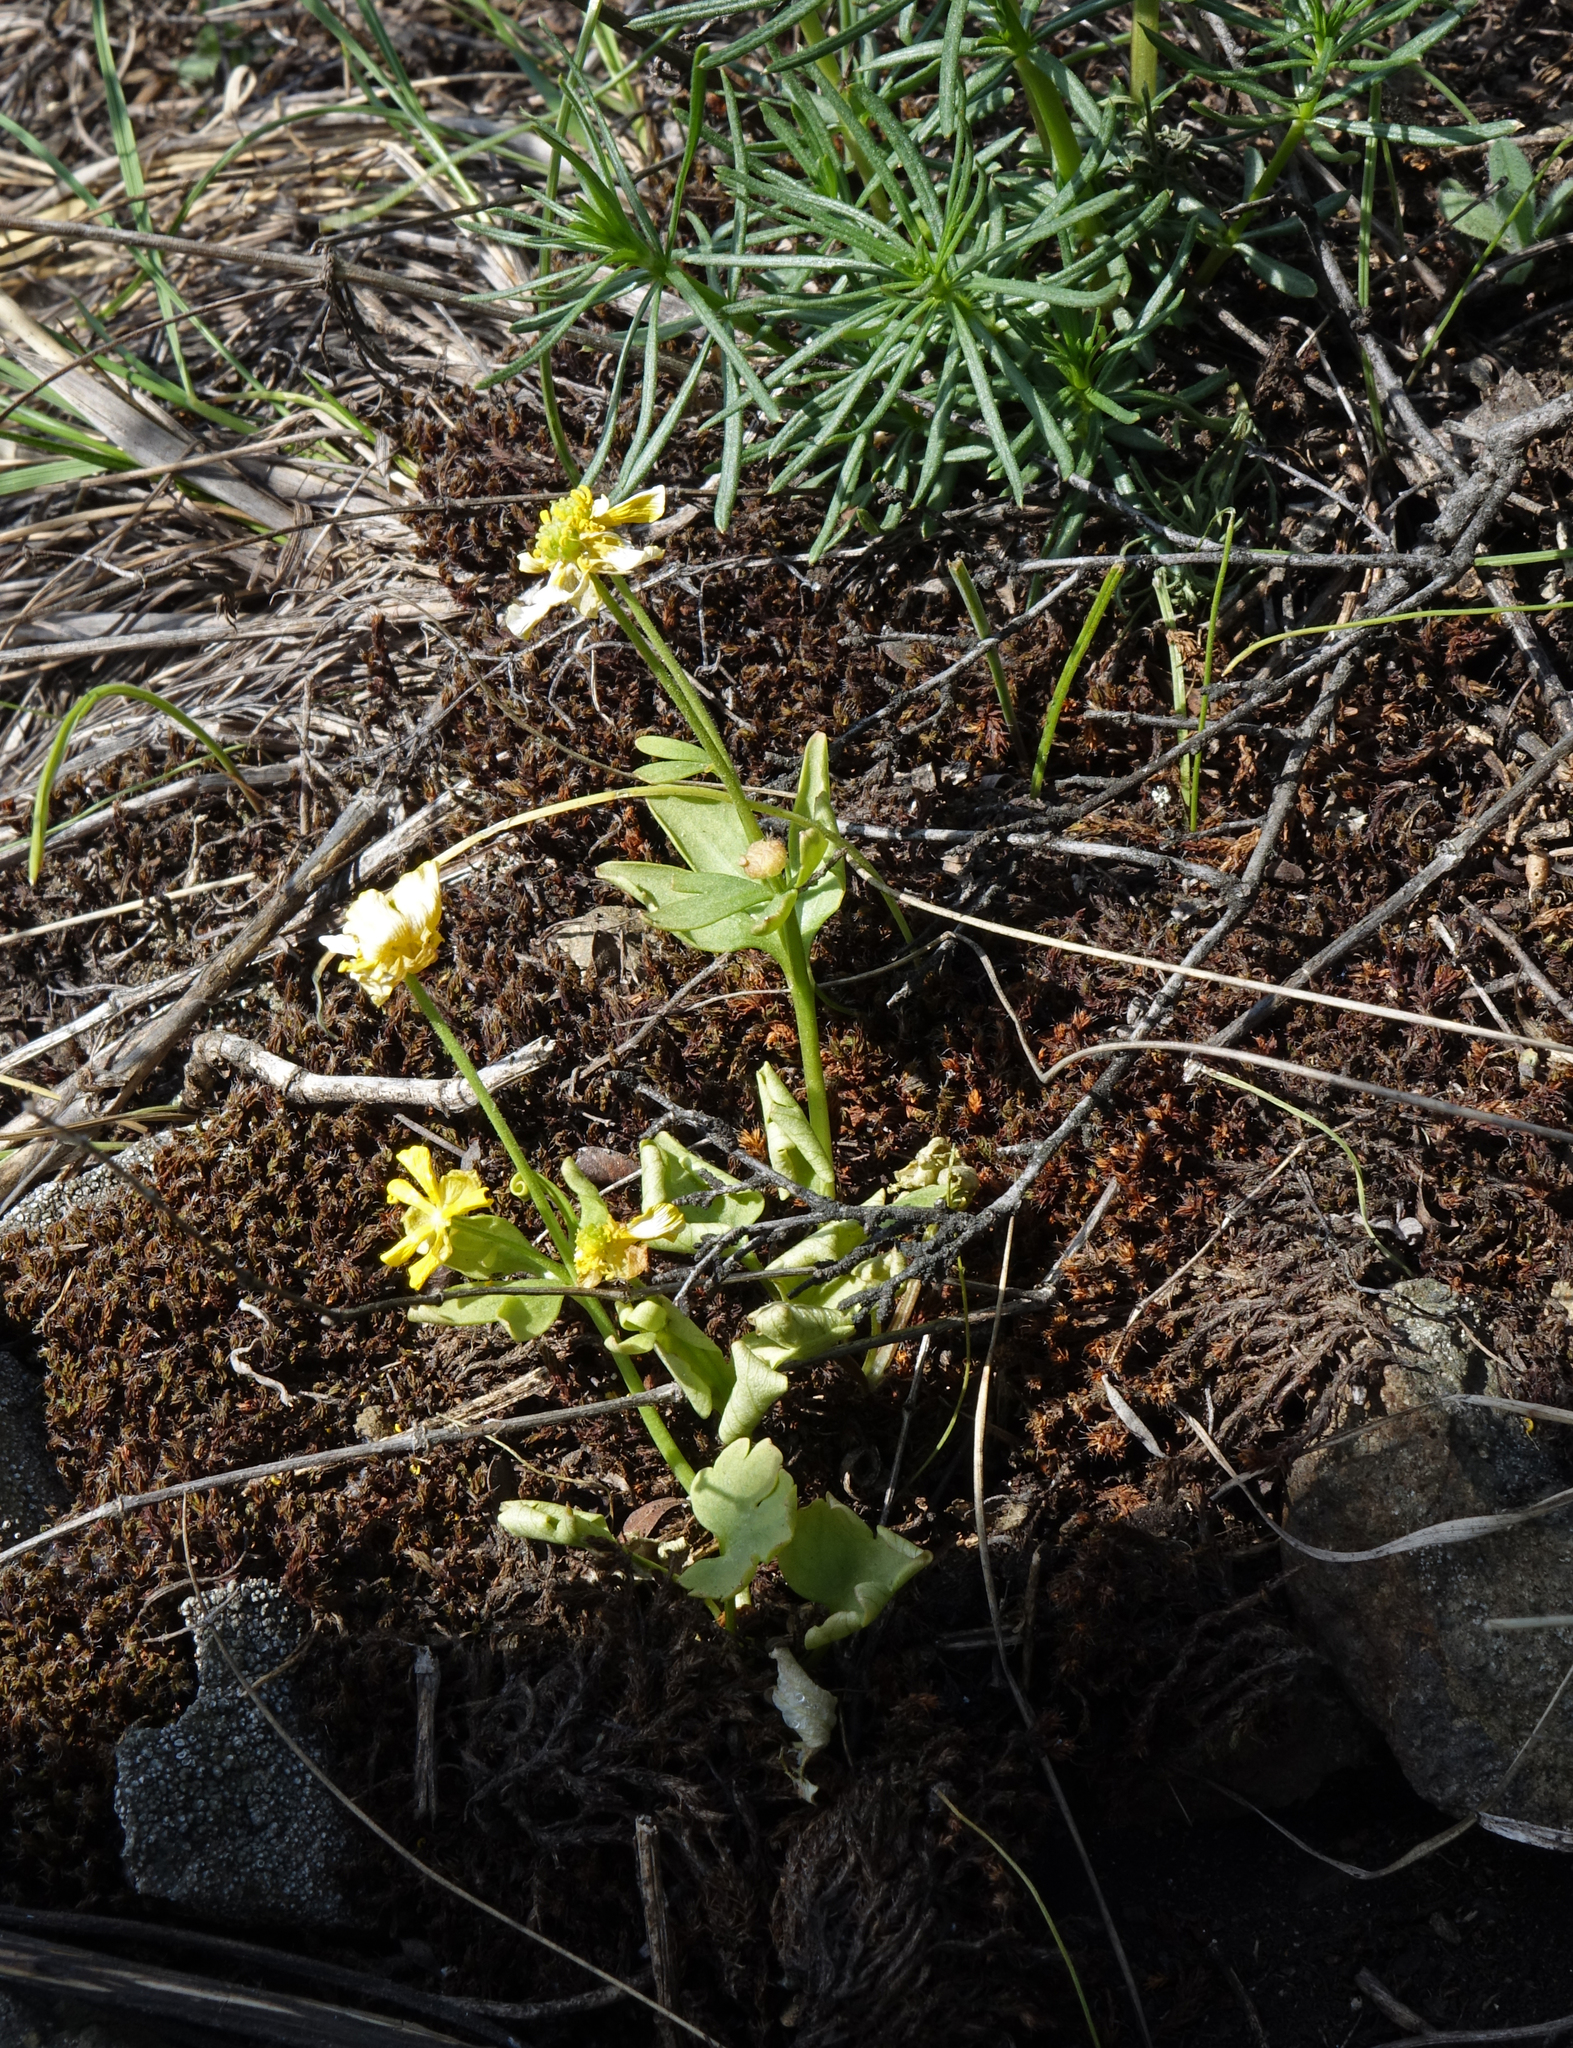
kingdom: Plantae
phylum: Tracheophyta
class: Magnoliopsida
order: Ranunculales
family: Ranunculaceae
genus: Ranunculus
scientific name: Ranunculus polyrhizos
